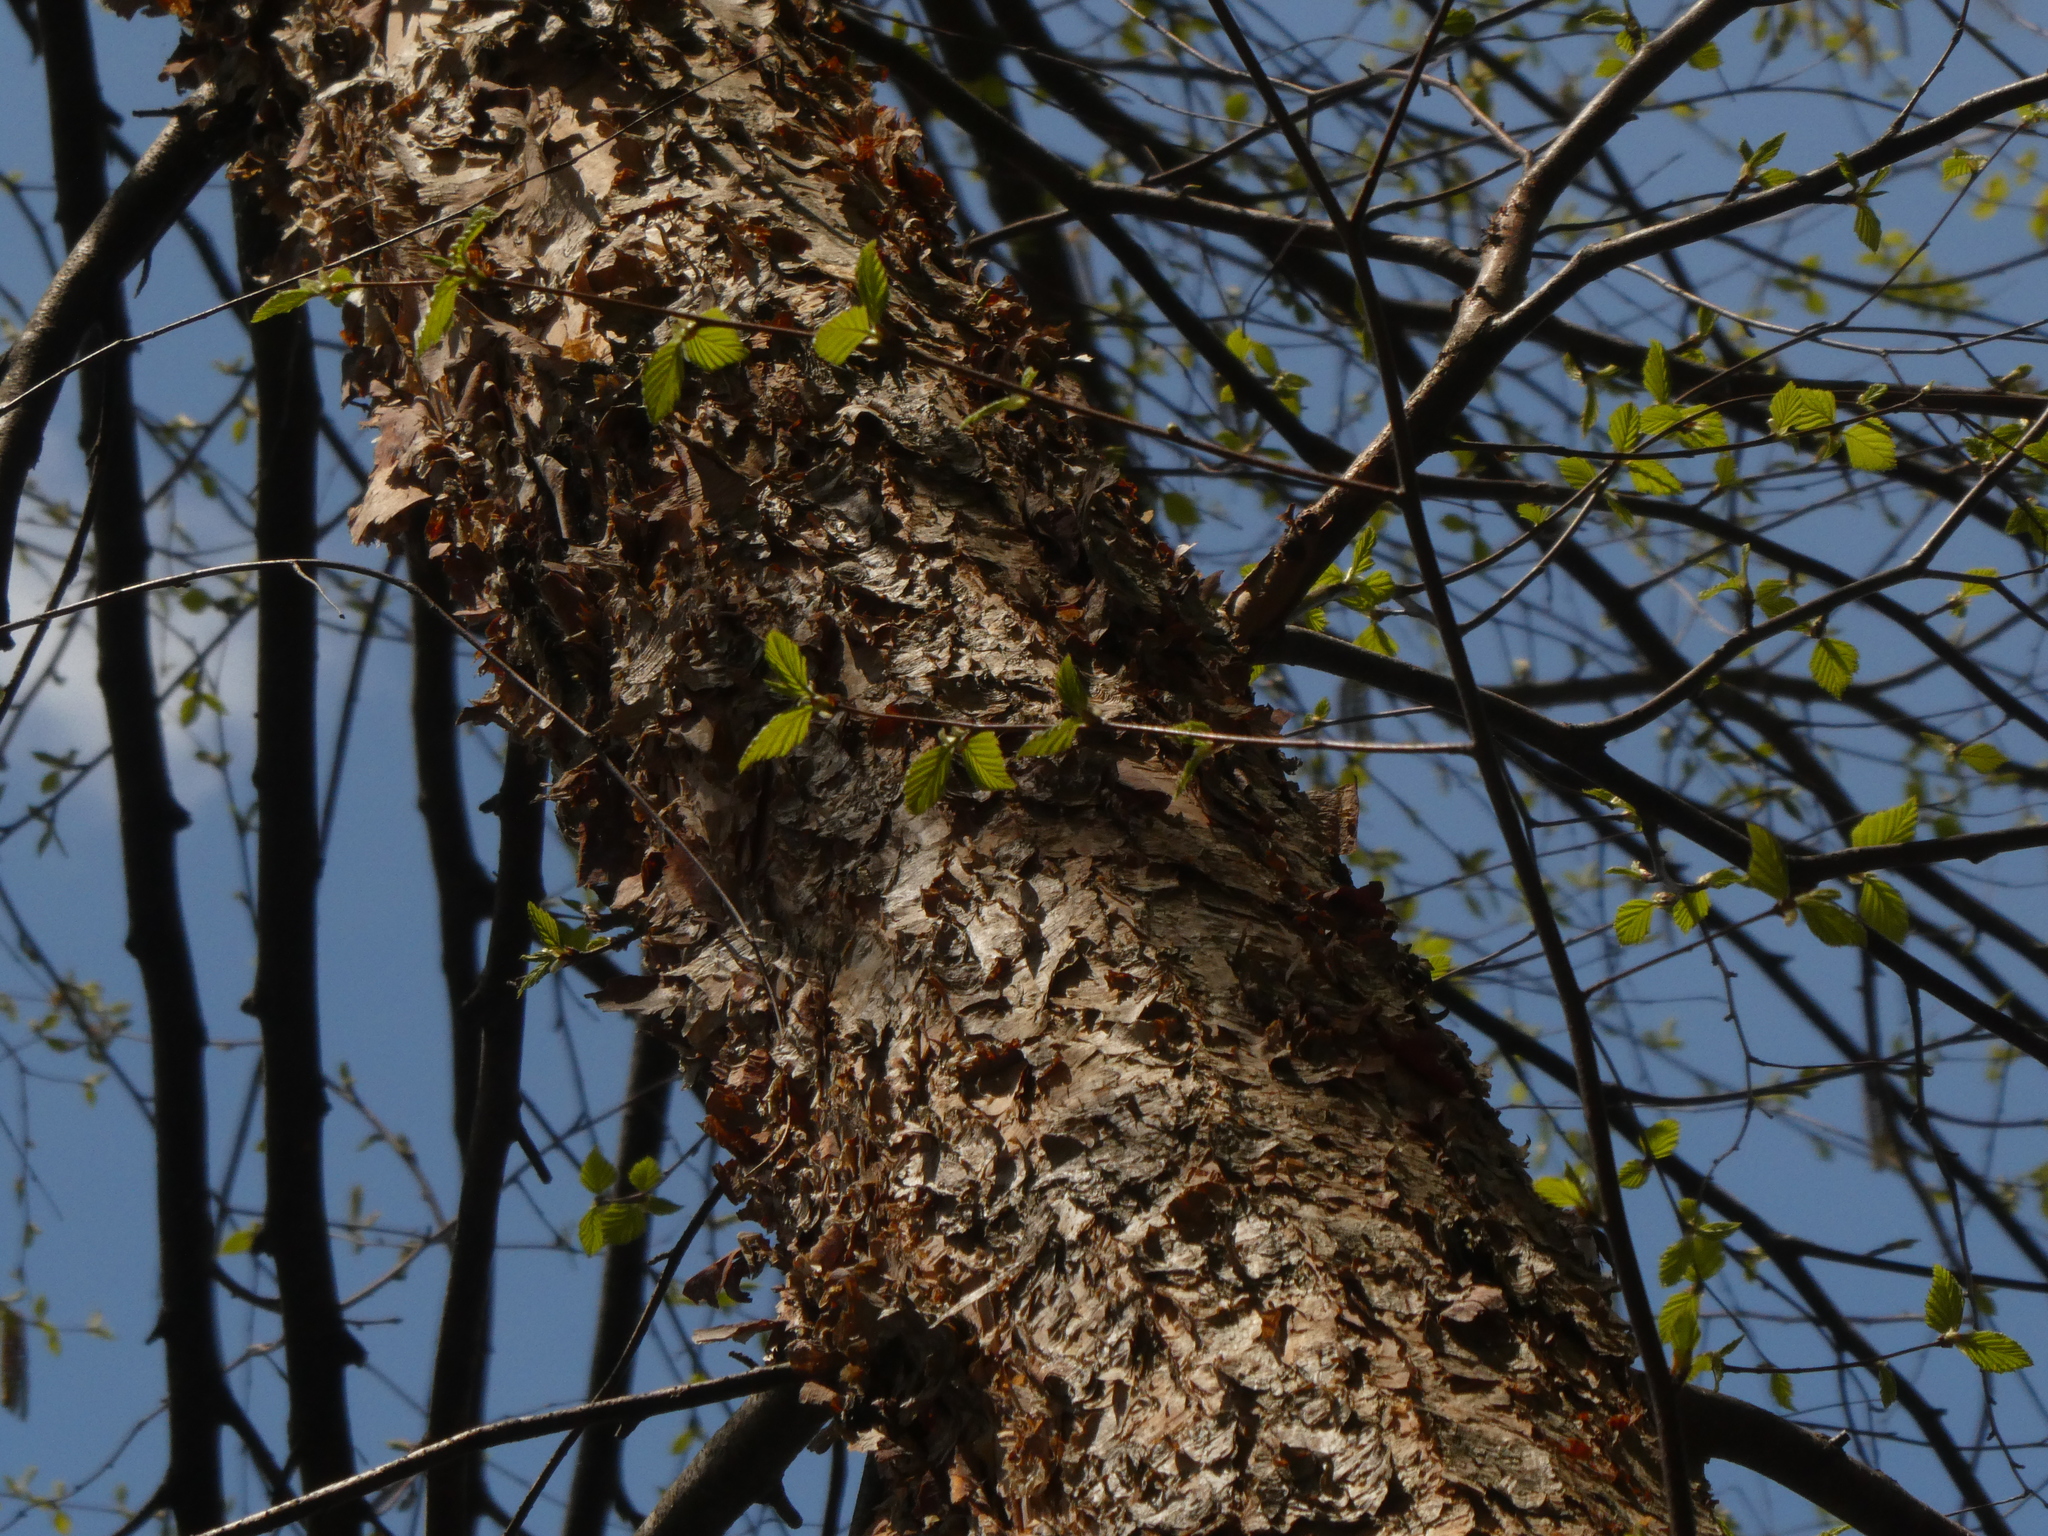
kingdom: Plantae
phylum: Tracheophyta
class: Magnoliopsida
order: Fagales
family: Betulaceae
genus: Betula
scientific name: Betula nigra
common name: Black birch
